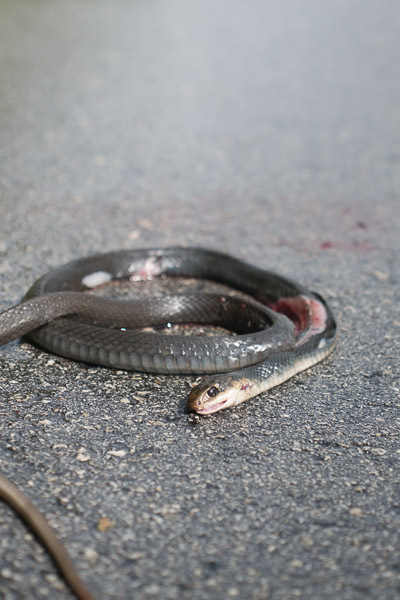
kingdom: Animalia
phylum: Chordata
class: Squamata
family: Colubridae
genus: Coluber
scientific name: Coluber constrictor
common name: Eastern racer
